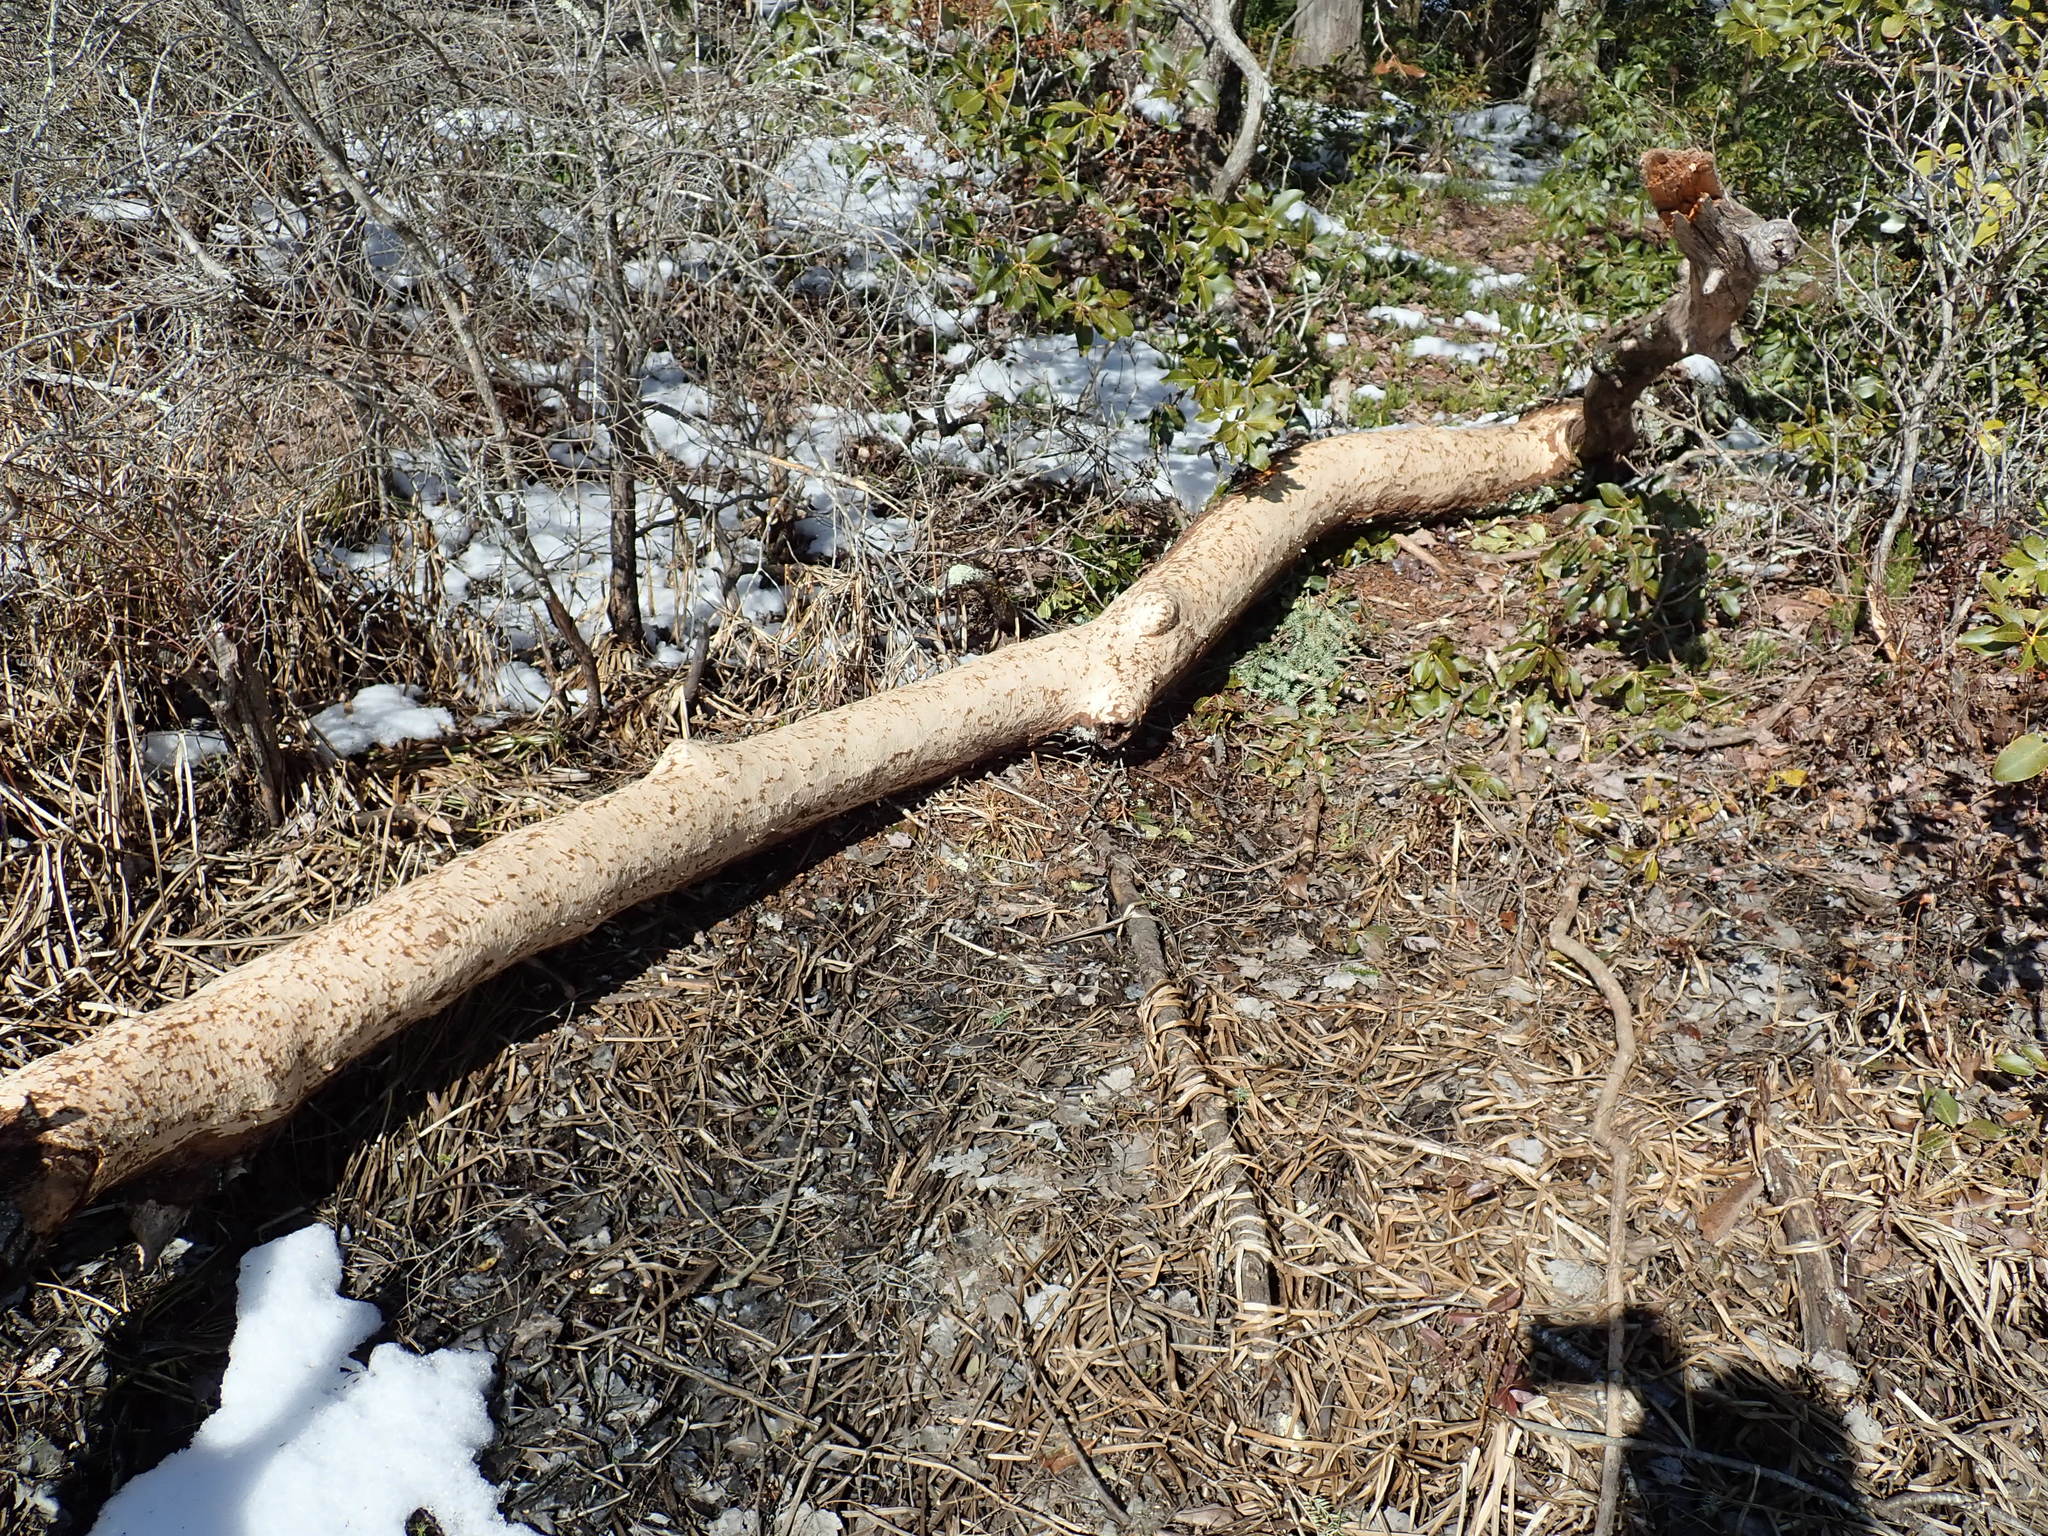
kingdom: Animalia
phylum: Chordata
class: Mammalia
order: Rodentia
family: Castoridae
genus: Castor
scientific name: Castor canadensis
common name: American beaver
